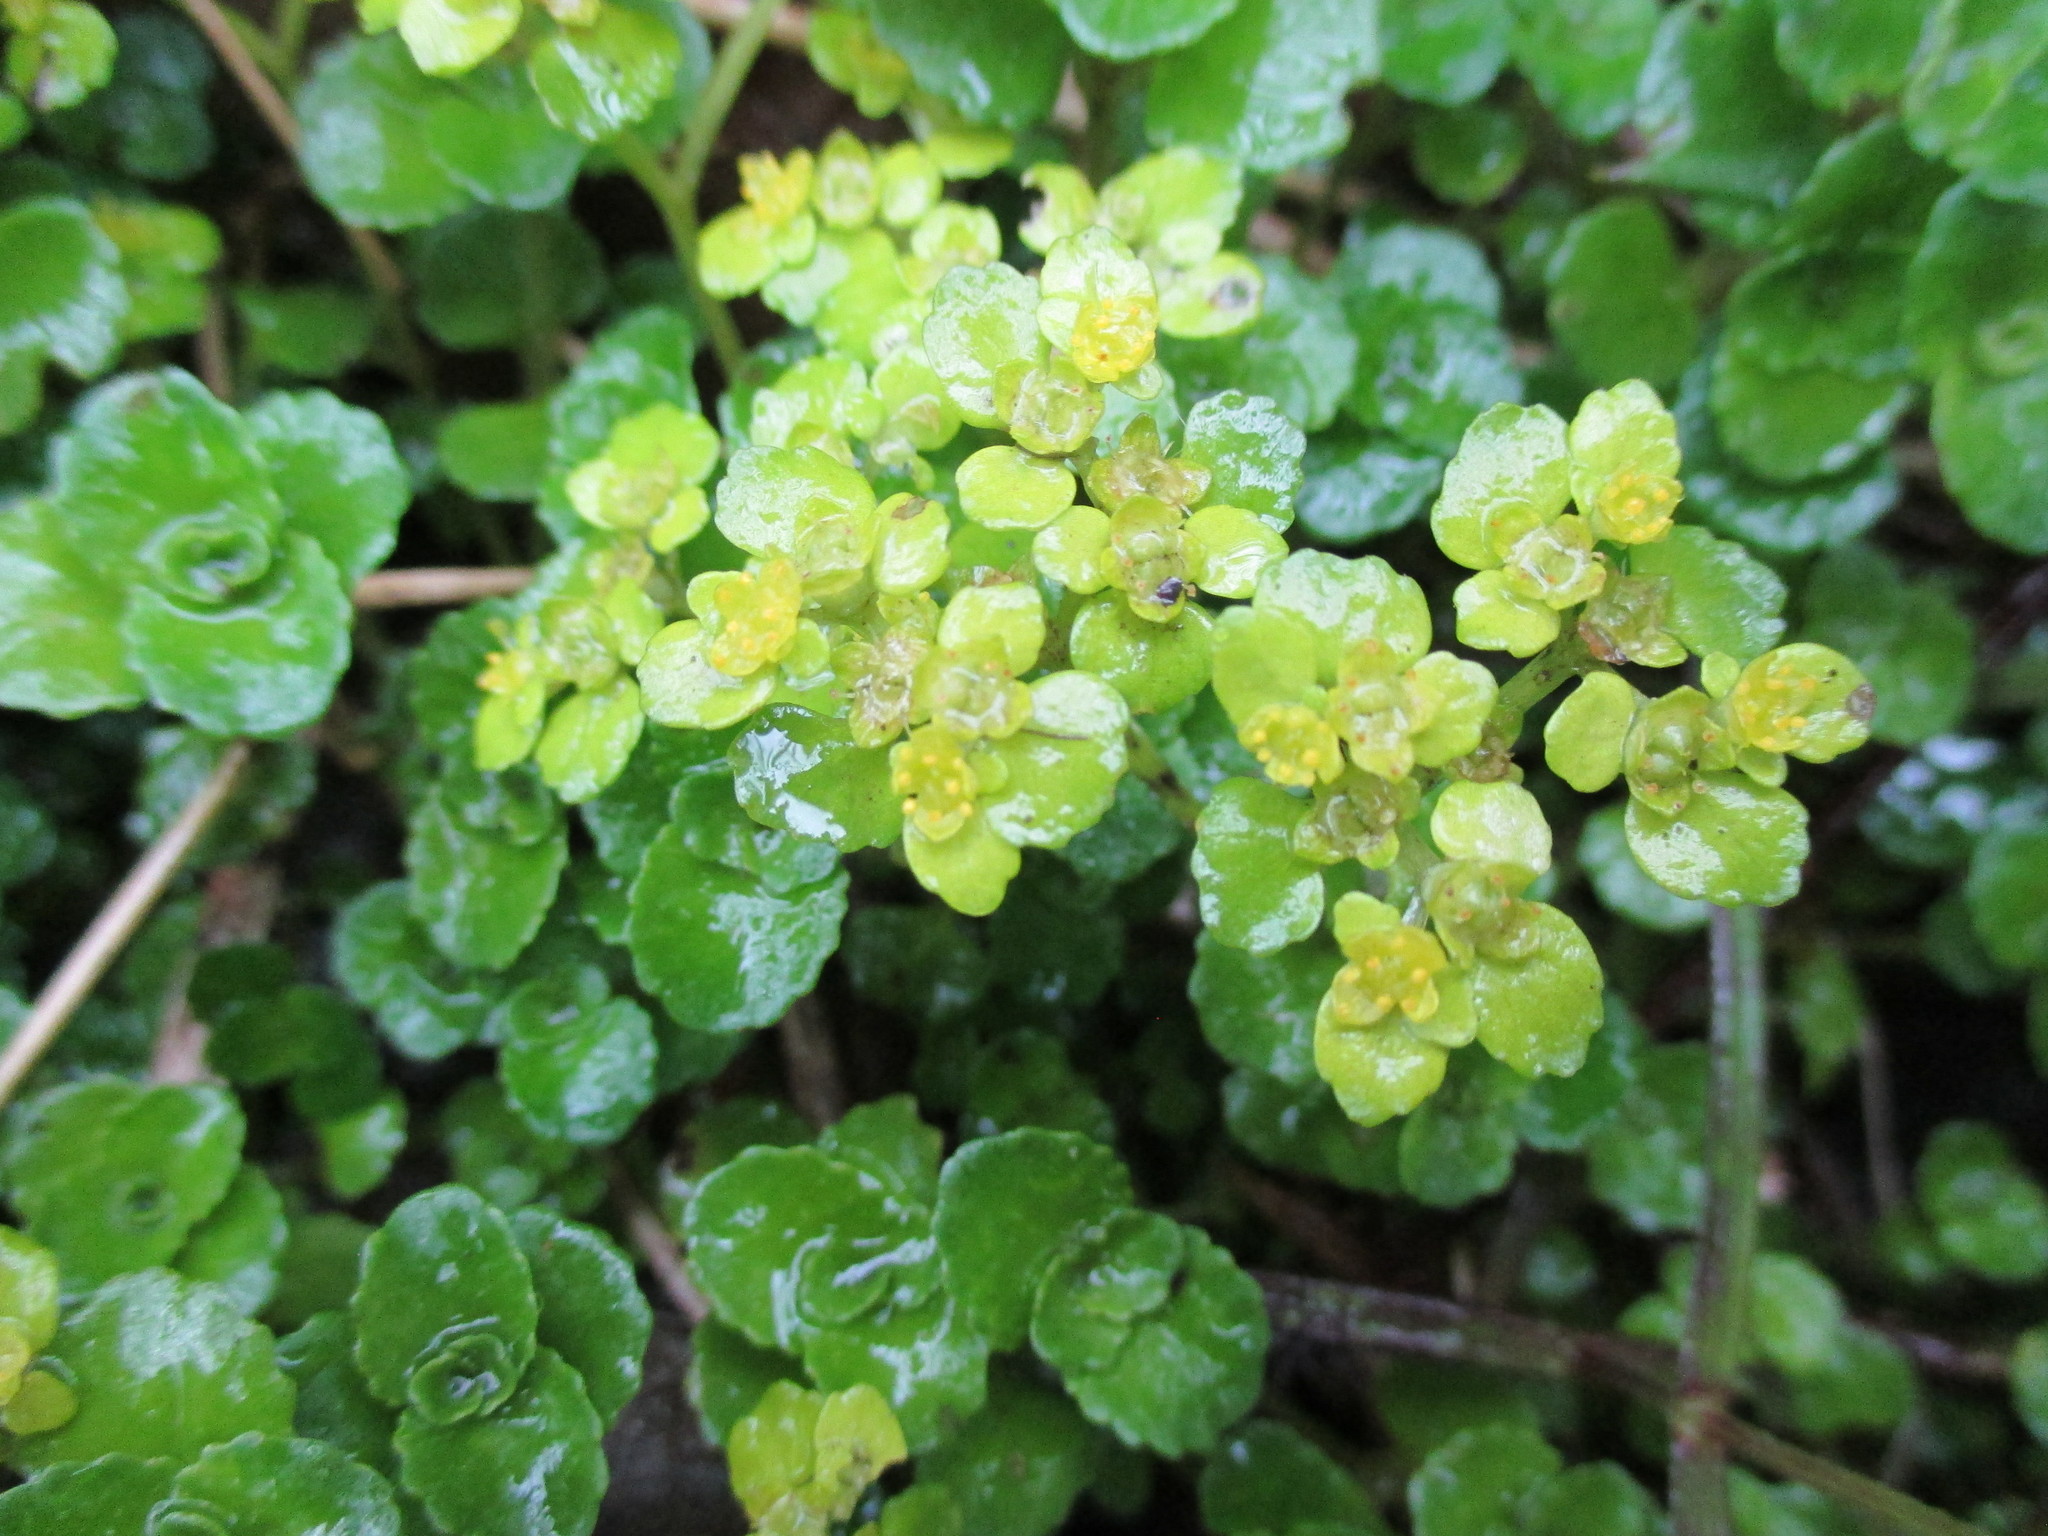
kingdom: Plantae
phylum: Tracheophyta
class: Magnoliopsida
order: Saxifragales
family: Saxifragaceae
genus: Chrysosplenium
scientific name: Chrysosplenium oppositifolium
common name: Opposite-leaved golden-saxifrage
